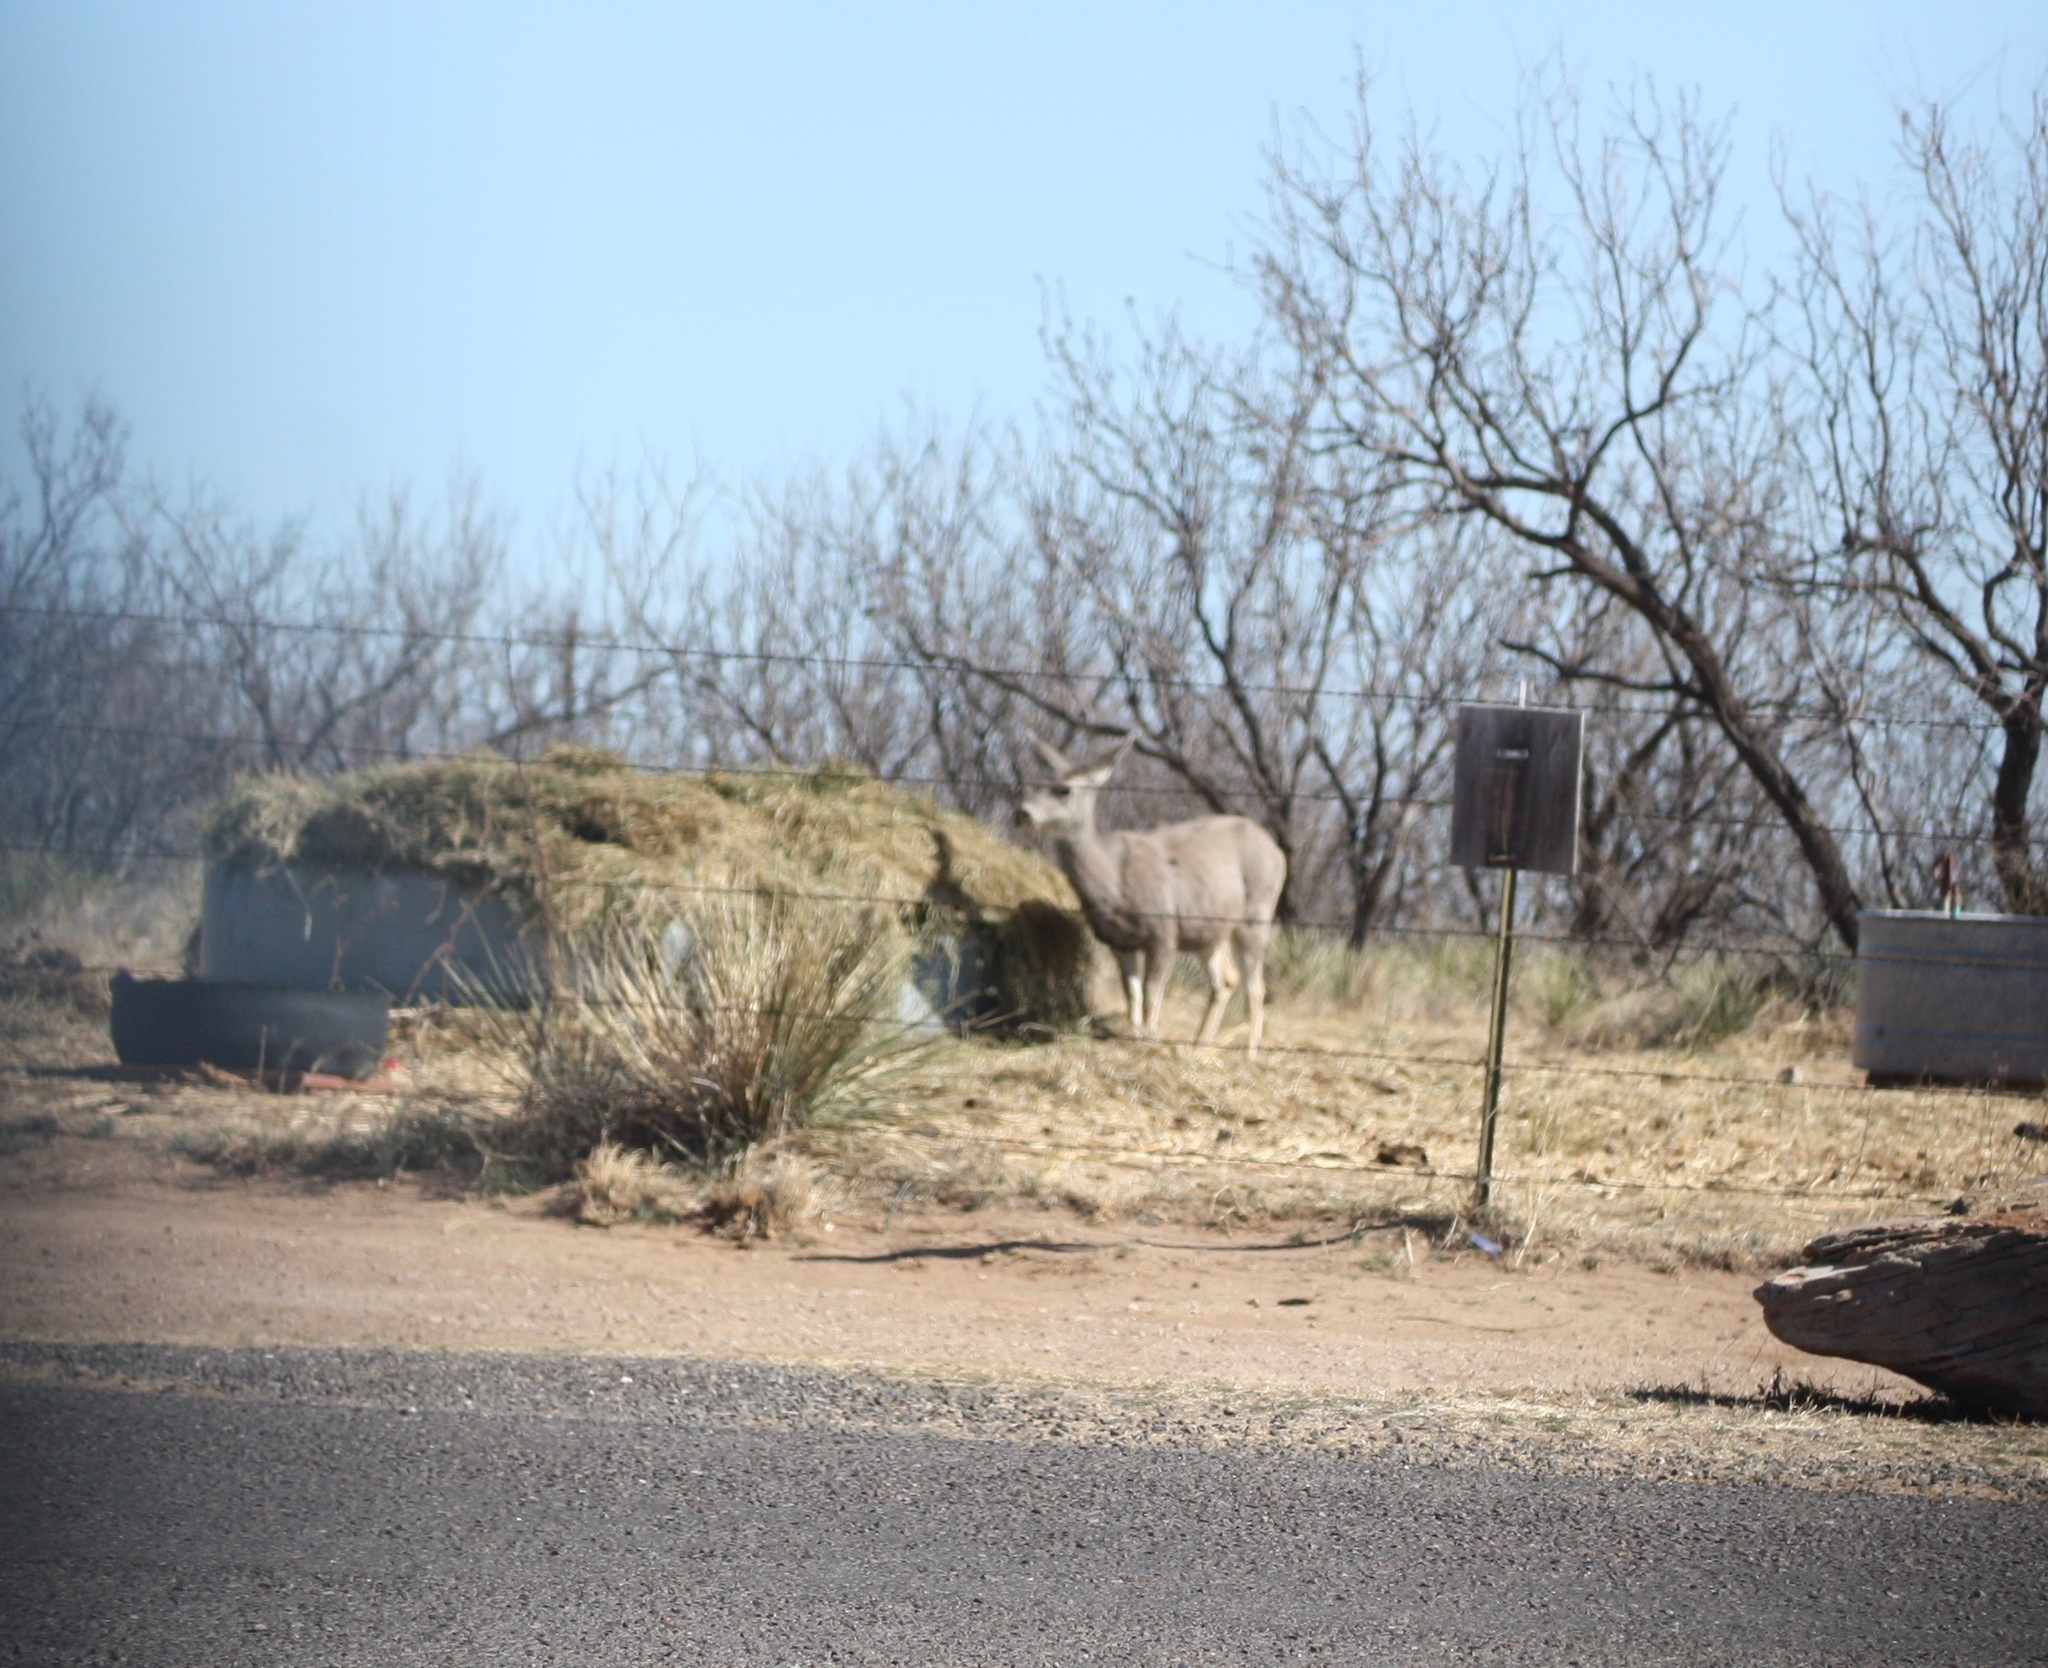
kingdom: Animalia
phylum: Chordata
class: Mammalia
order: Artiodactyla
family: Cervidae
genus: Odocoileus
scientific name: Odocoileus hemionus
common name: Mule deer
